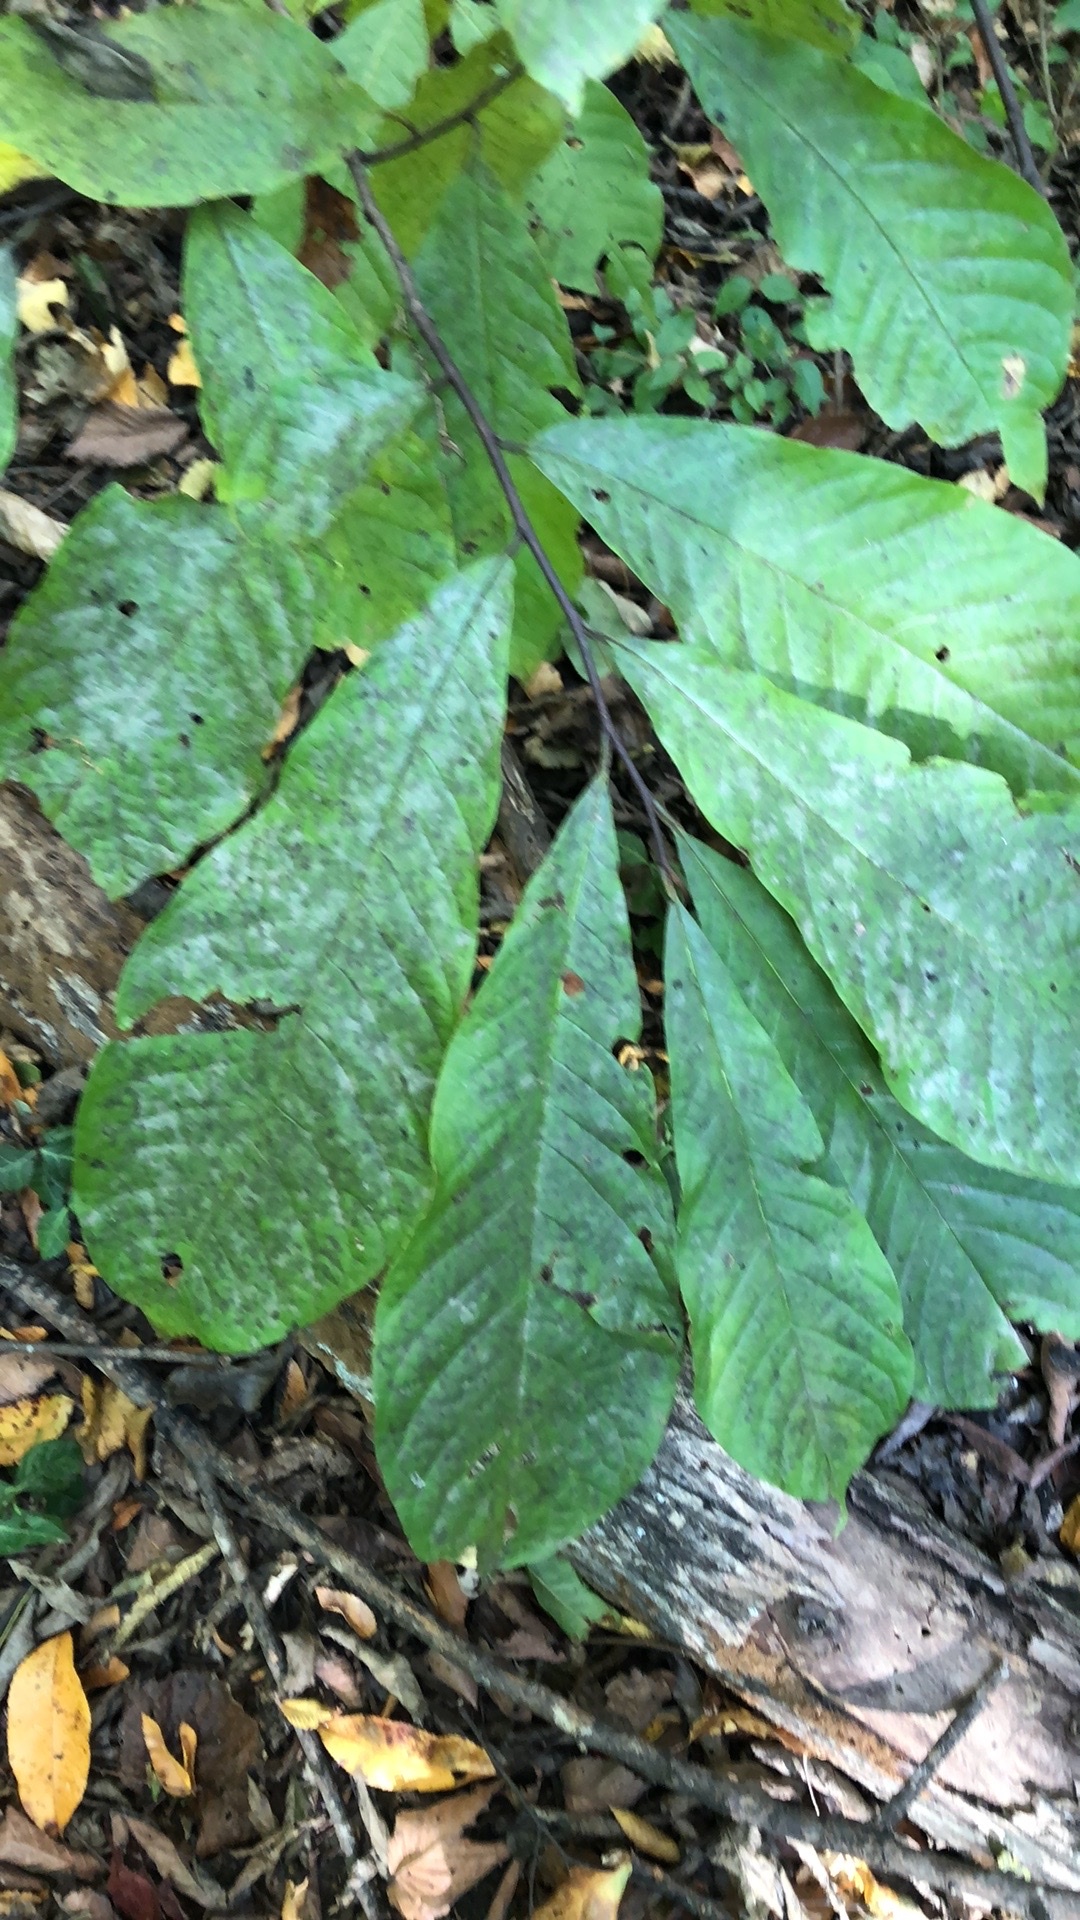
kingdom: Plantae
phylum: Tracheophyta
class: Magnoliopsida
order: Magnoliales
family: Annonaceae
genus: Asimina
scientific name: Asimina triloba
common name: Dog-banana
